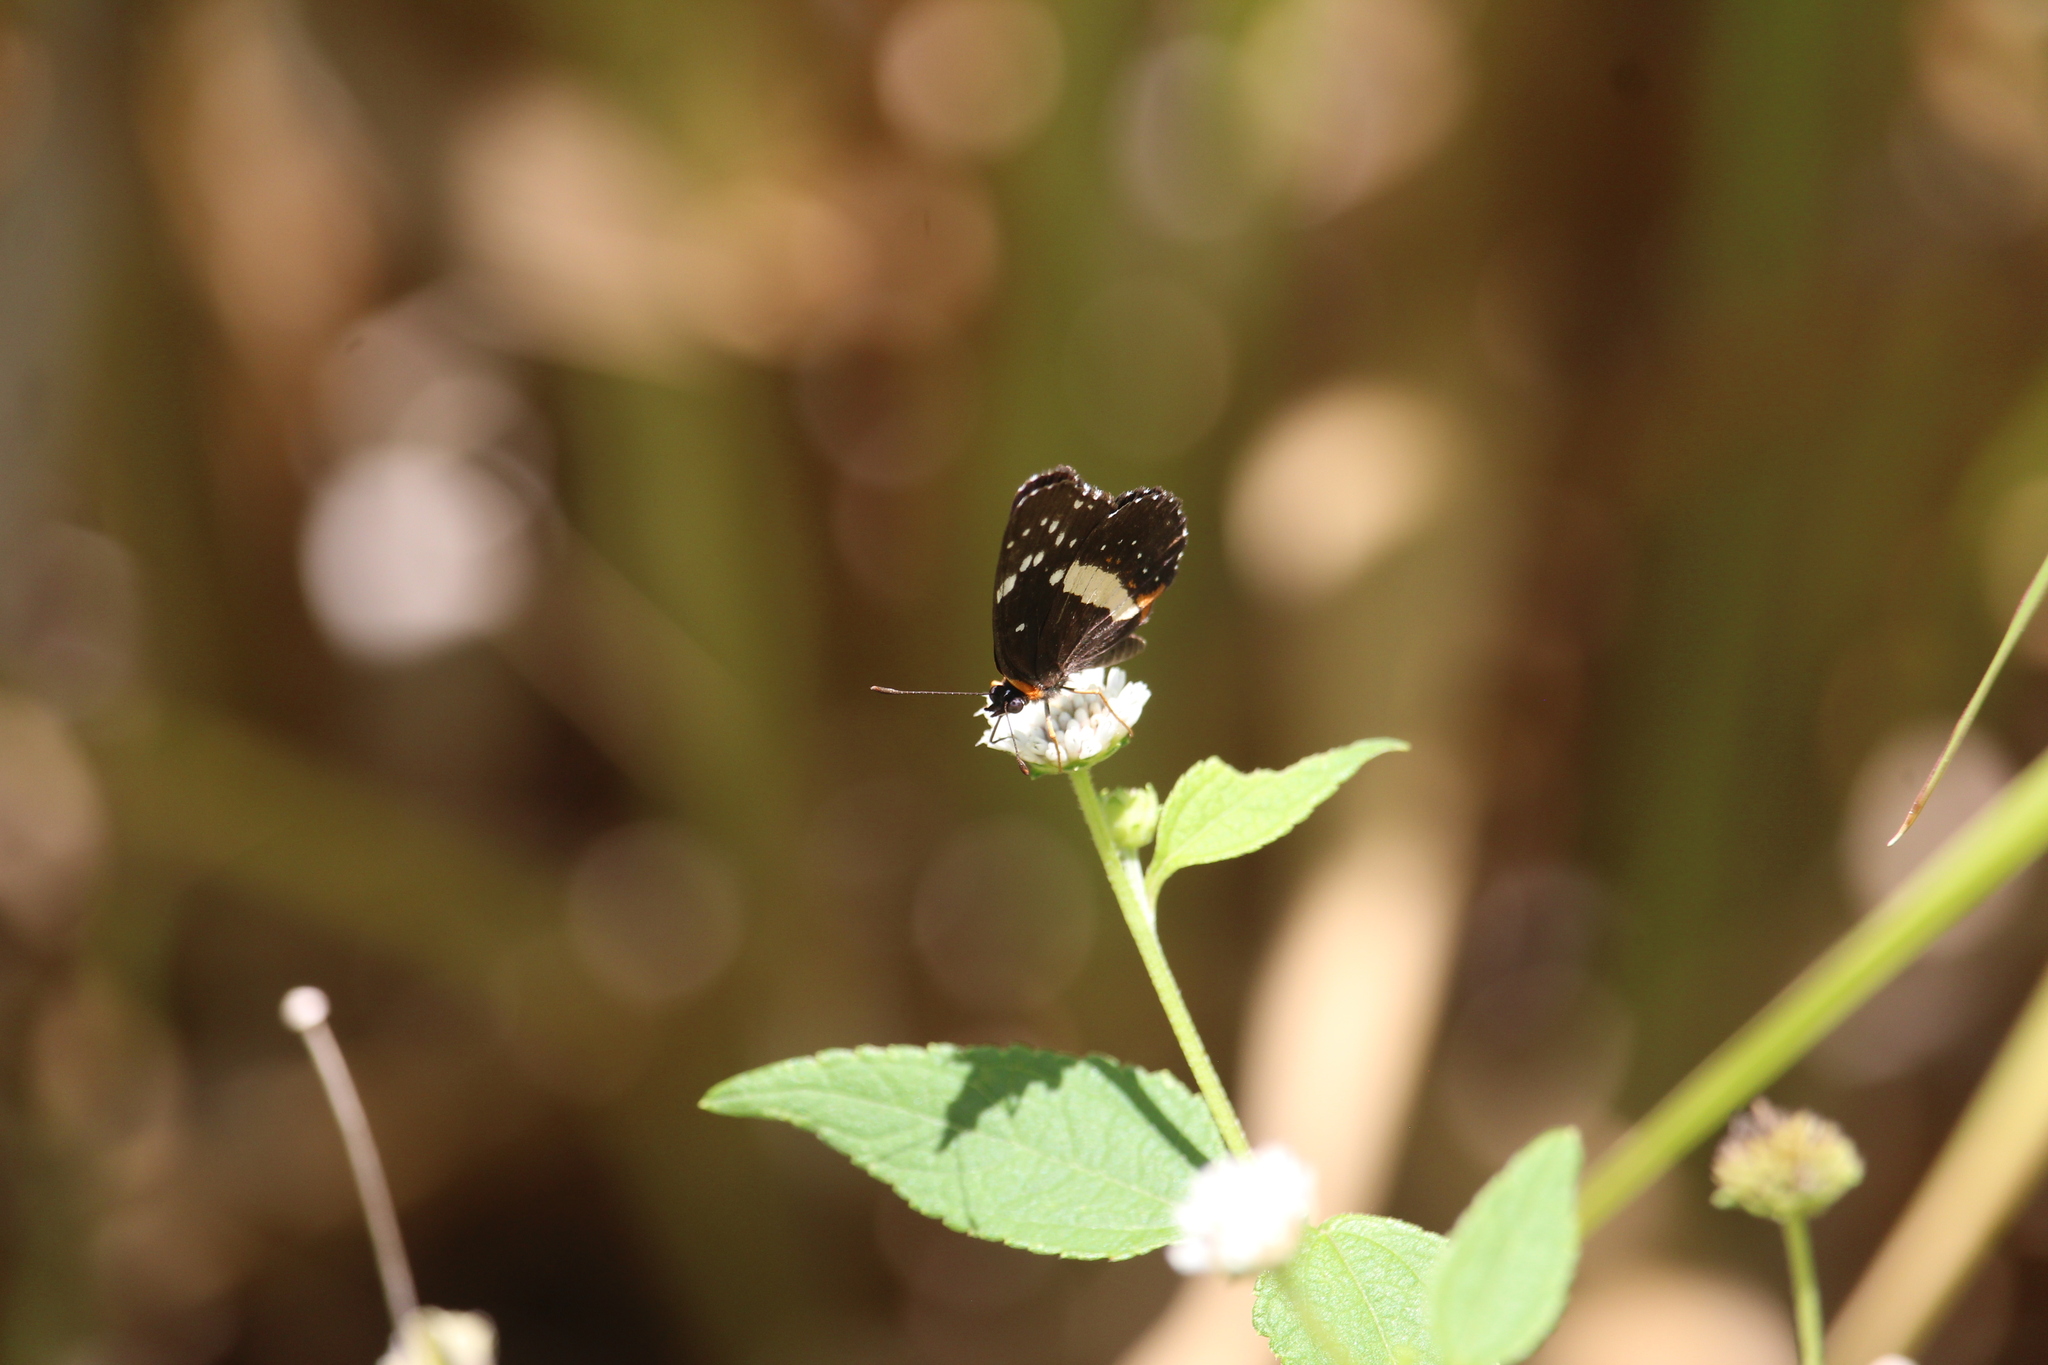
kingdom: Animalia
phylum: Arthropoda
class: Insecta
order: Lepidoptera
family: Nymphalidae
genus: Chlosyne
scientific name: Chlosyne lacinia
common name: Bordered patch
